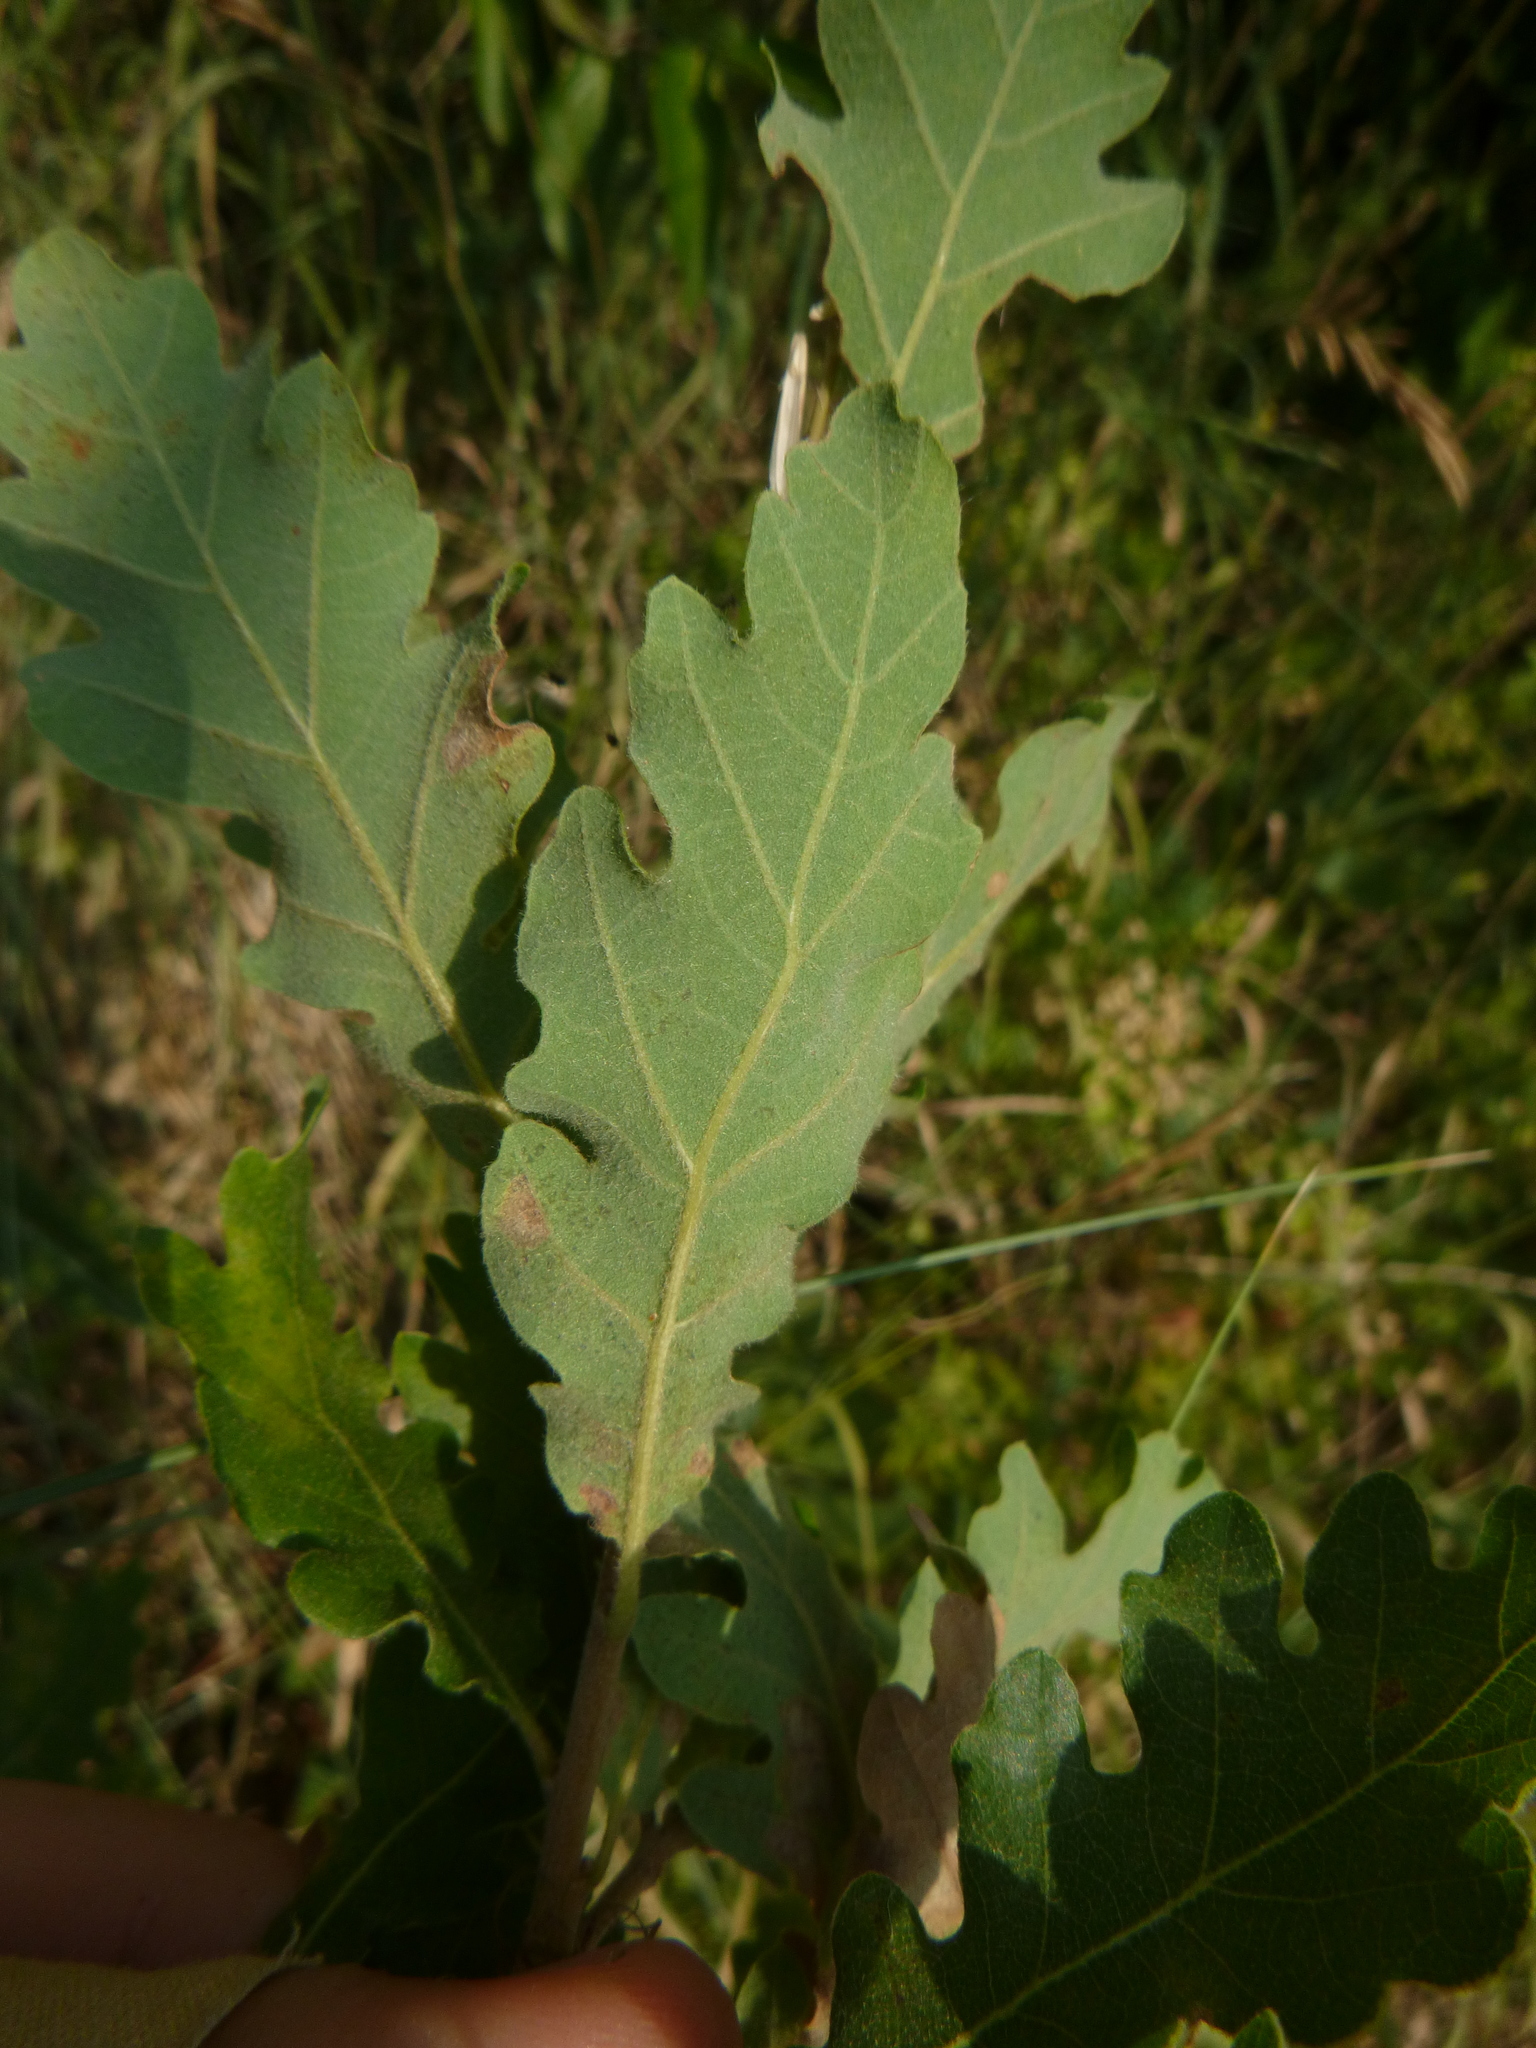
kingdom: Plantae
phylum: Tracheophyta
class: Magnoliopsida
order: Fagales
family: Fagaceae
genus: Quercus
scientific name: Quercus pubescens
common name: Downy oak
